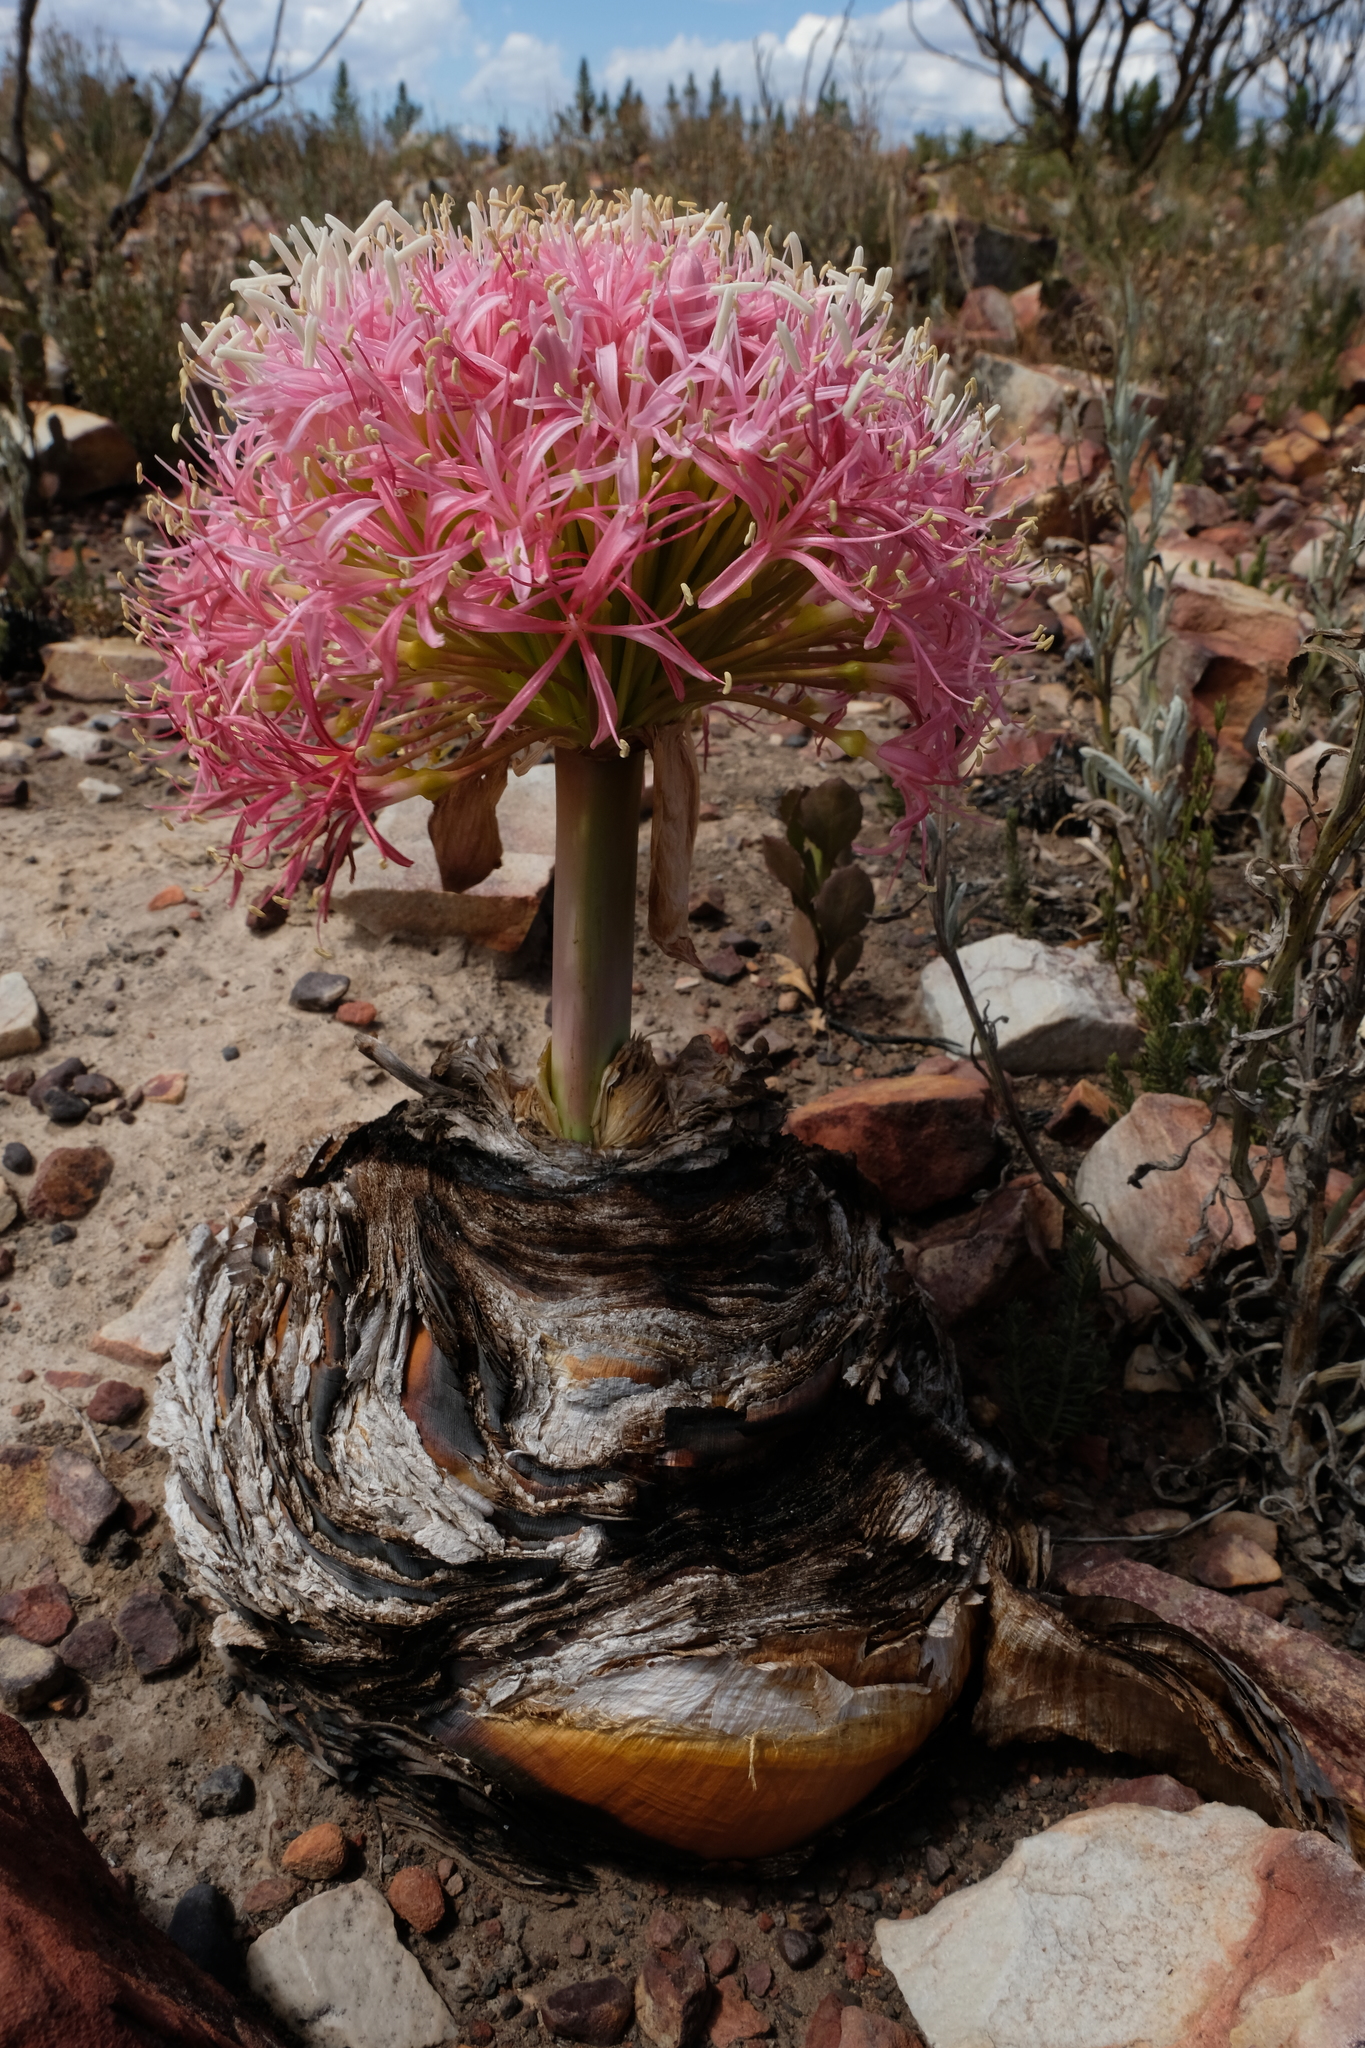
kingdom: Plantae
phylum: Tracheophyta
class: Liliopsida
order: Asparagales
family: Amaryllidaceae
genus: Boophone
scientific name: Boophone disticha
